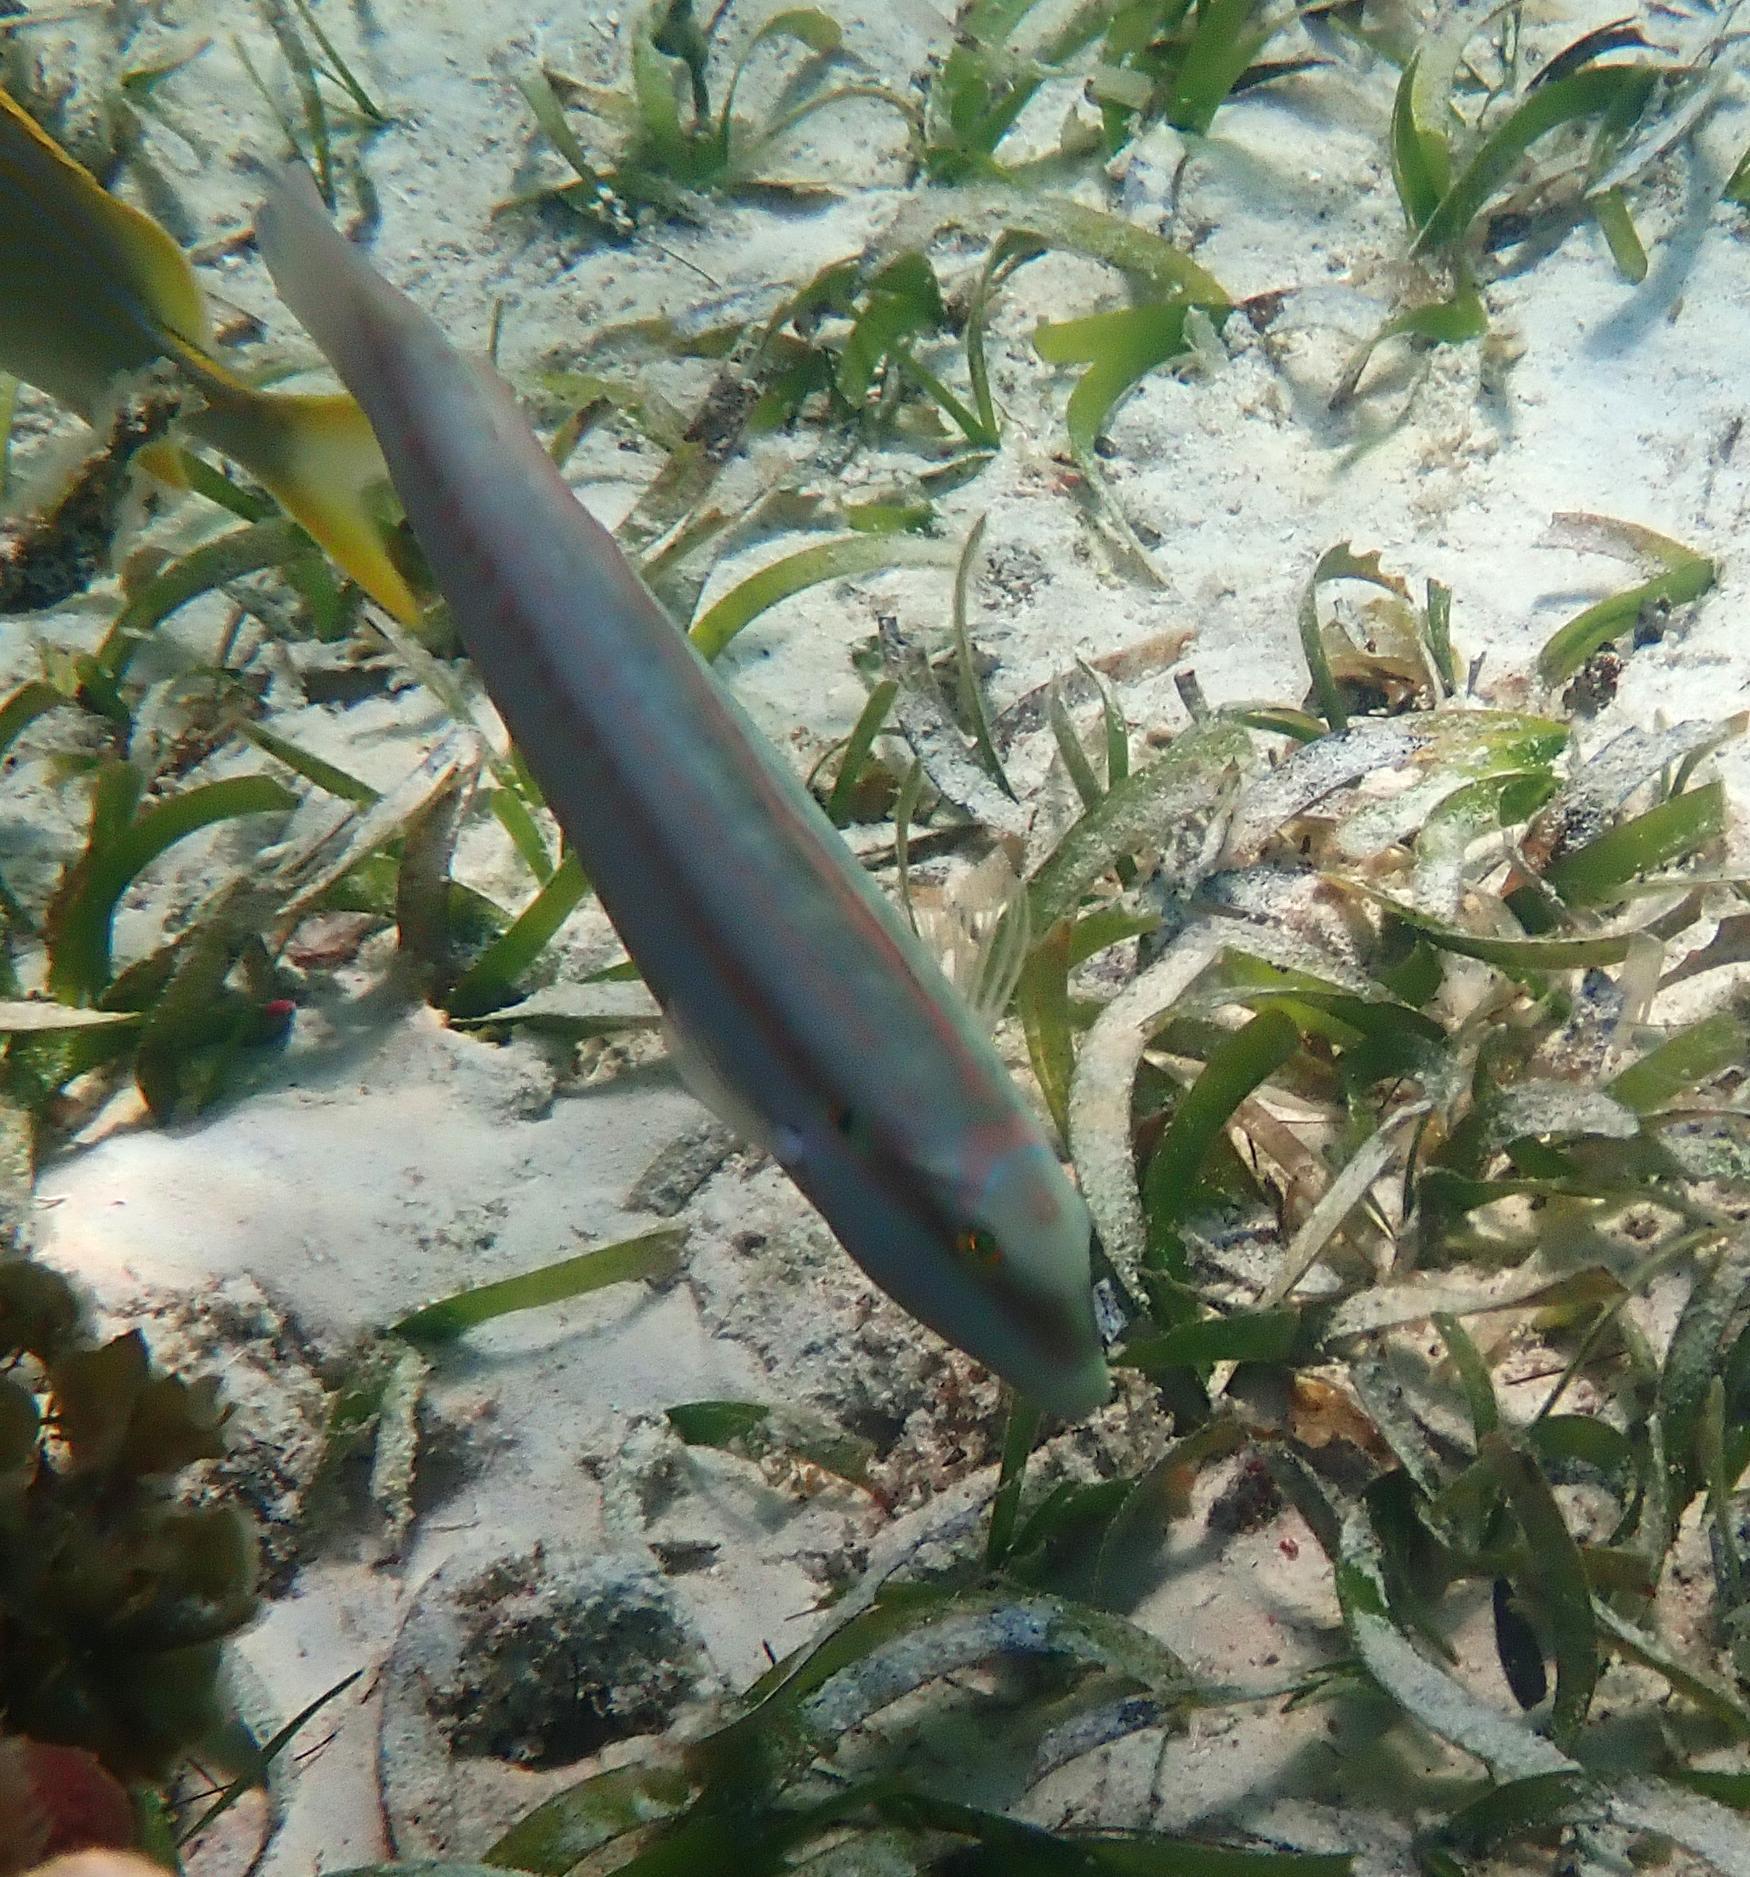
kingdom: Animalia
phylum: Chordata
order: Perciformes
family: Labridae
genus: Halichoeres
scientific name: Halichoeres bivittatus
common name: Slippery dick
